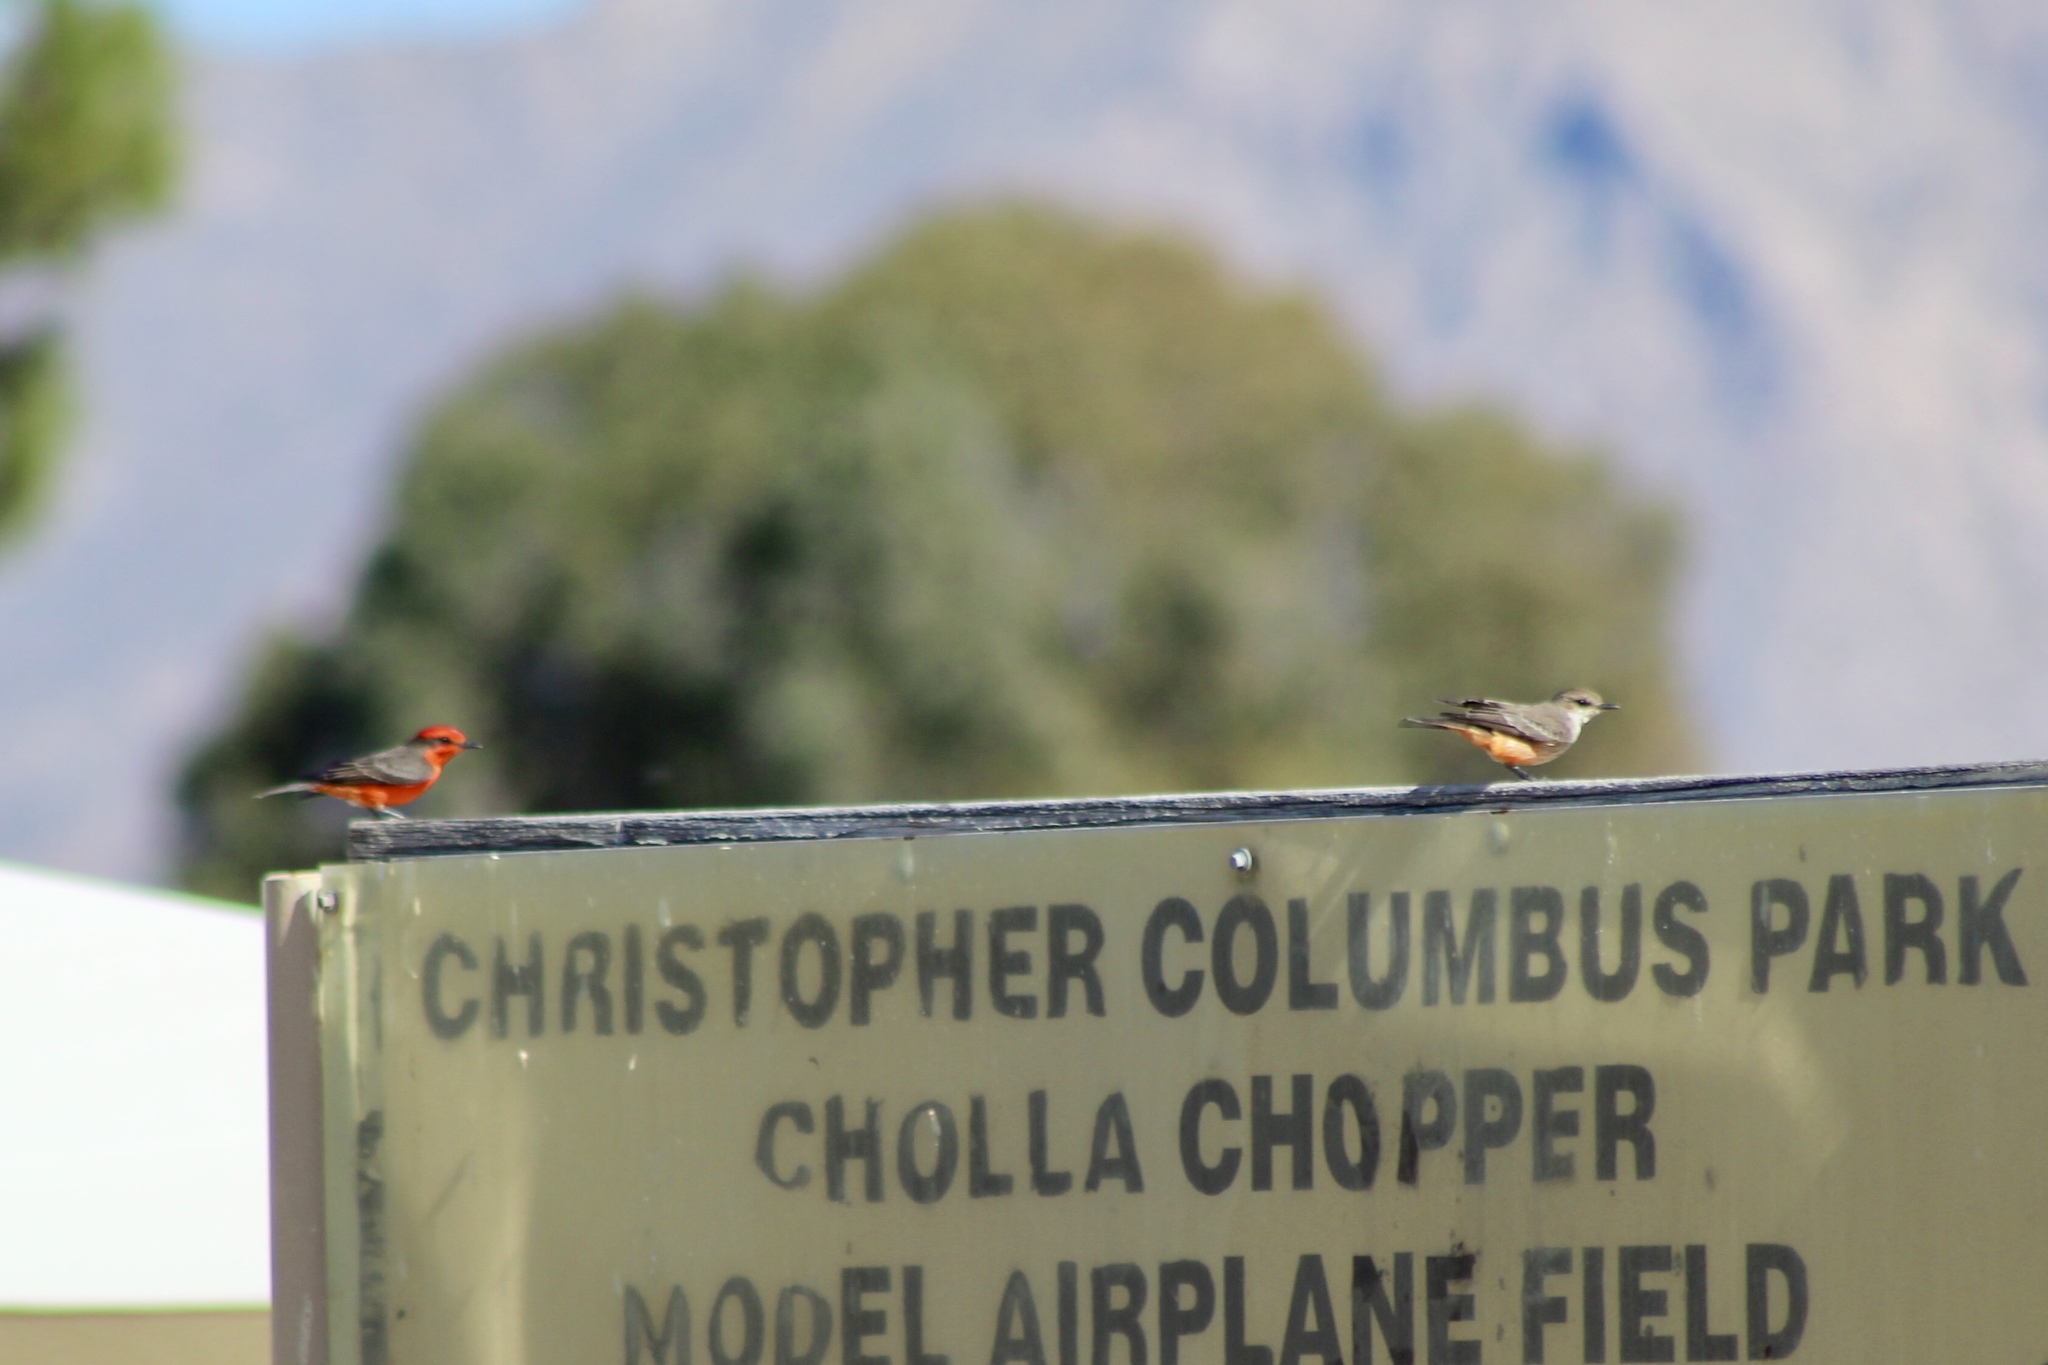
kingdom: Animalia
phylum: Chordata
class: Aves
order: Passeriformes
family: Tyrannidae
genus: Pyrocephalus
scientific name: Pyrocephalus rubinus
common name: Vermilion flycatcher
